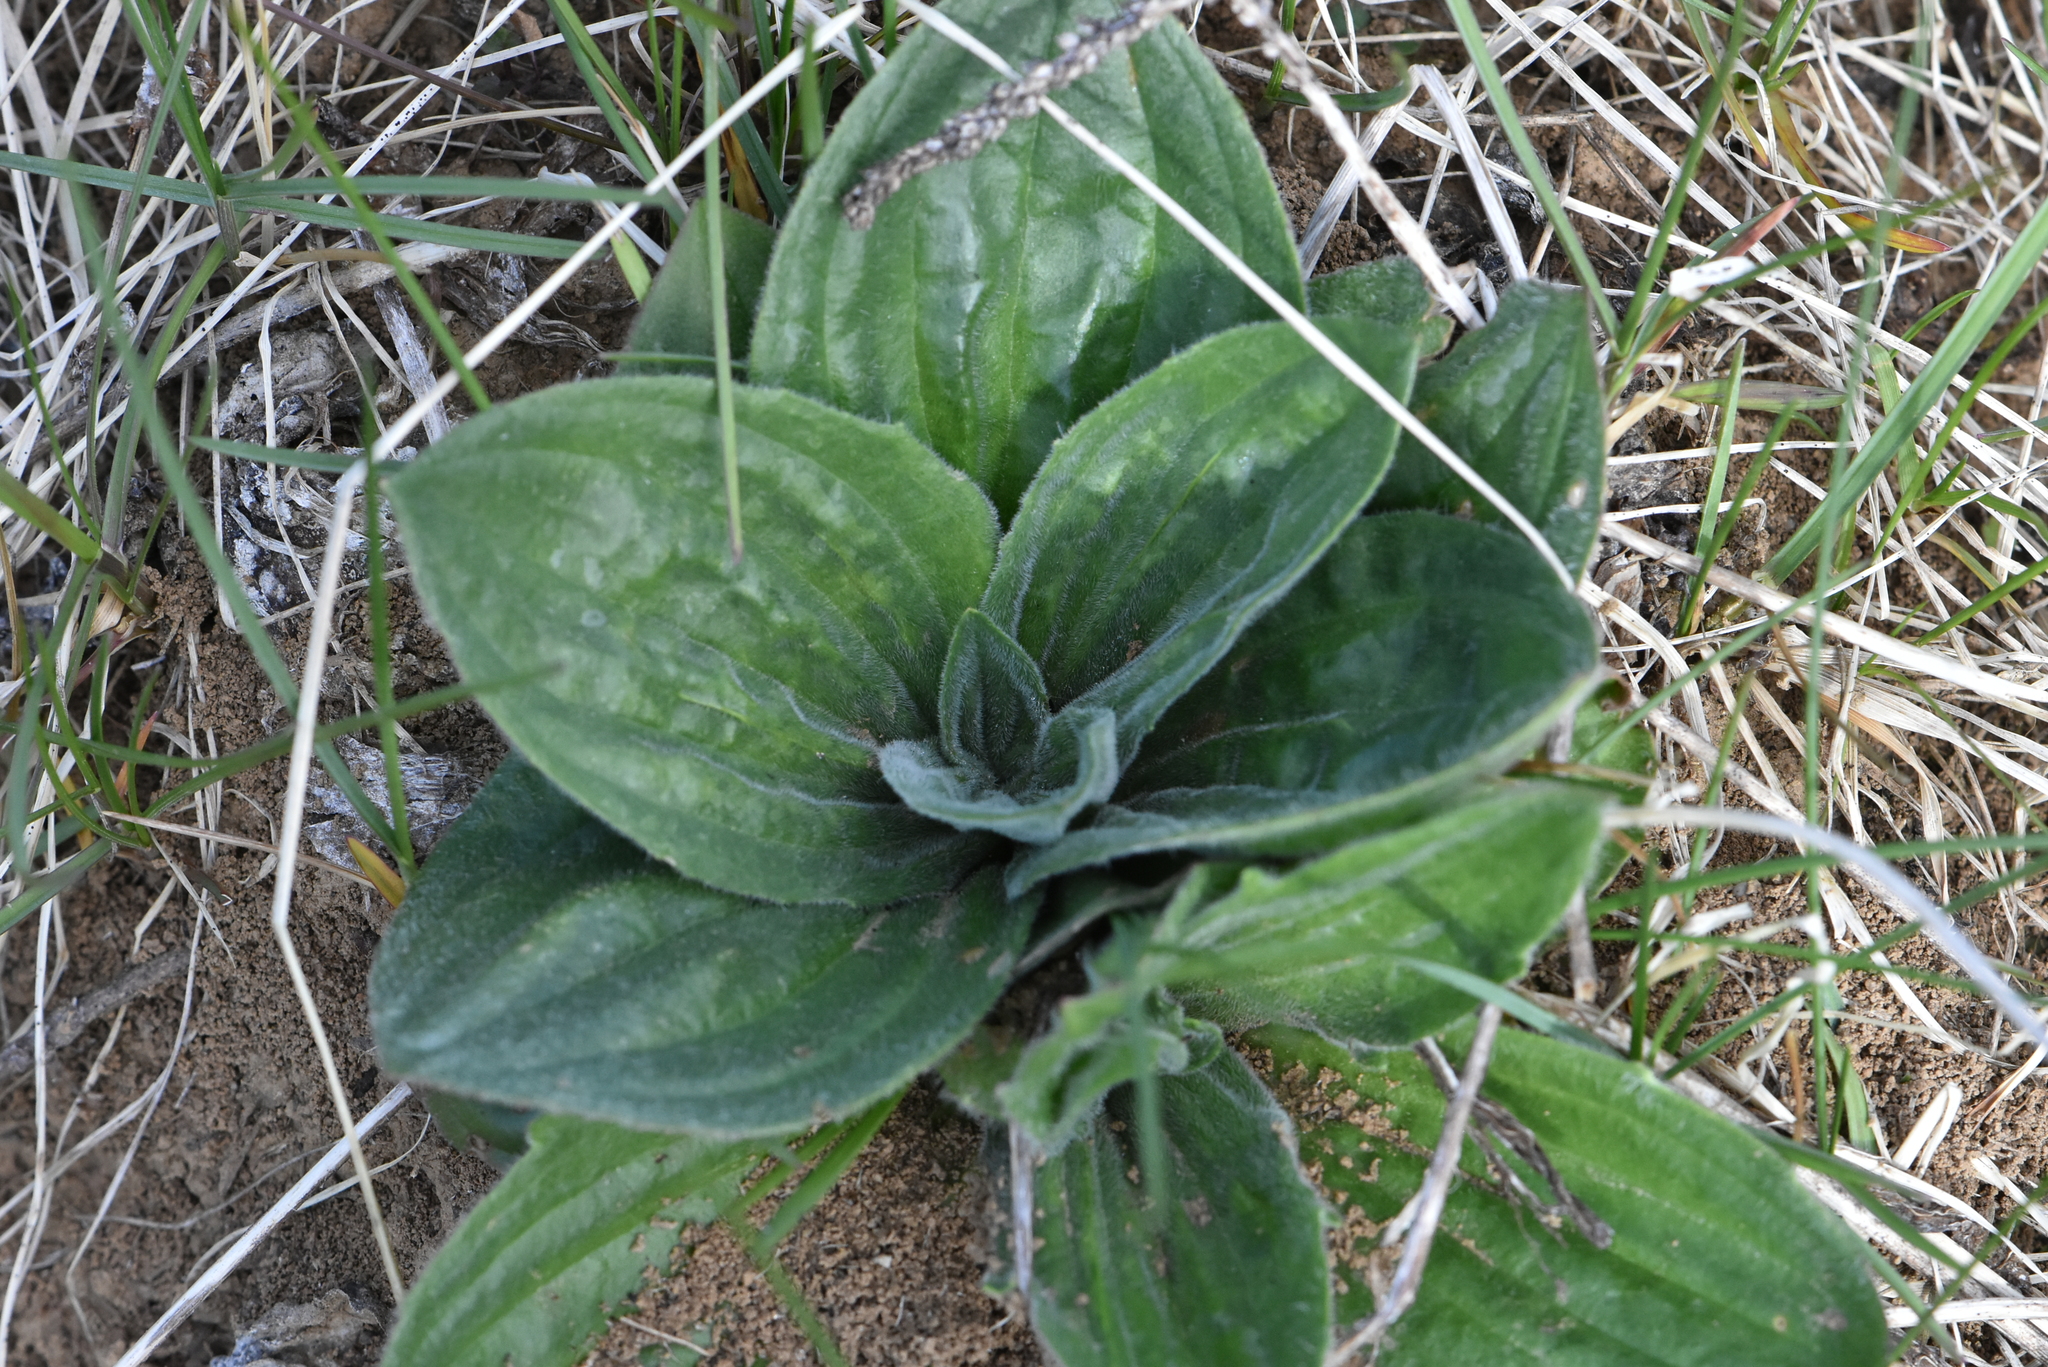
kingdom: Plantae
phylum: Tracheophyta
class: Magnoliopsida
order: Lamiales
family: Plantaginaceae
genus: Plantago
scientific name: Plantago media
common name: Hoary plantain
